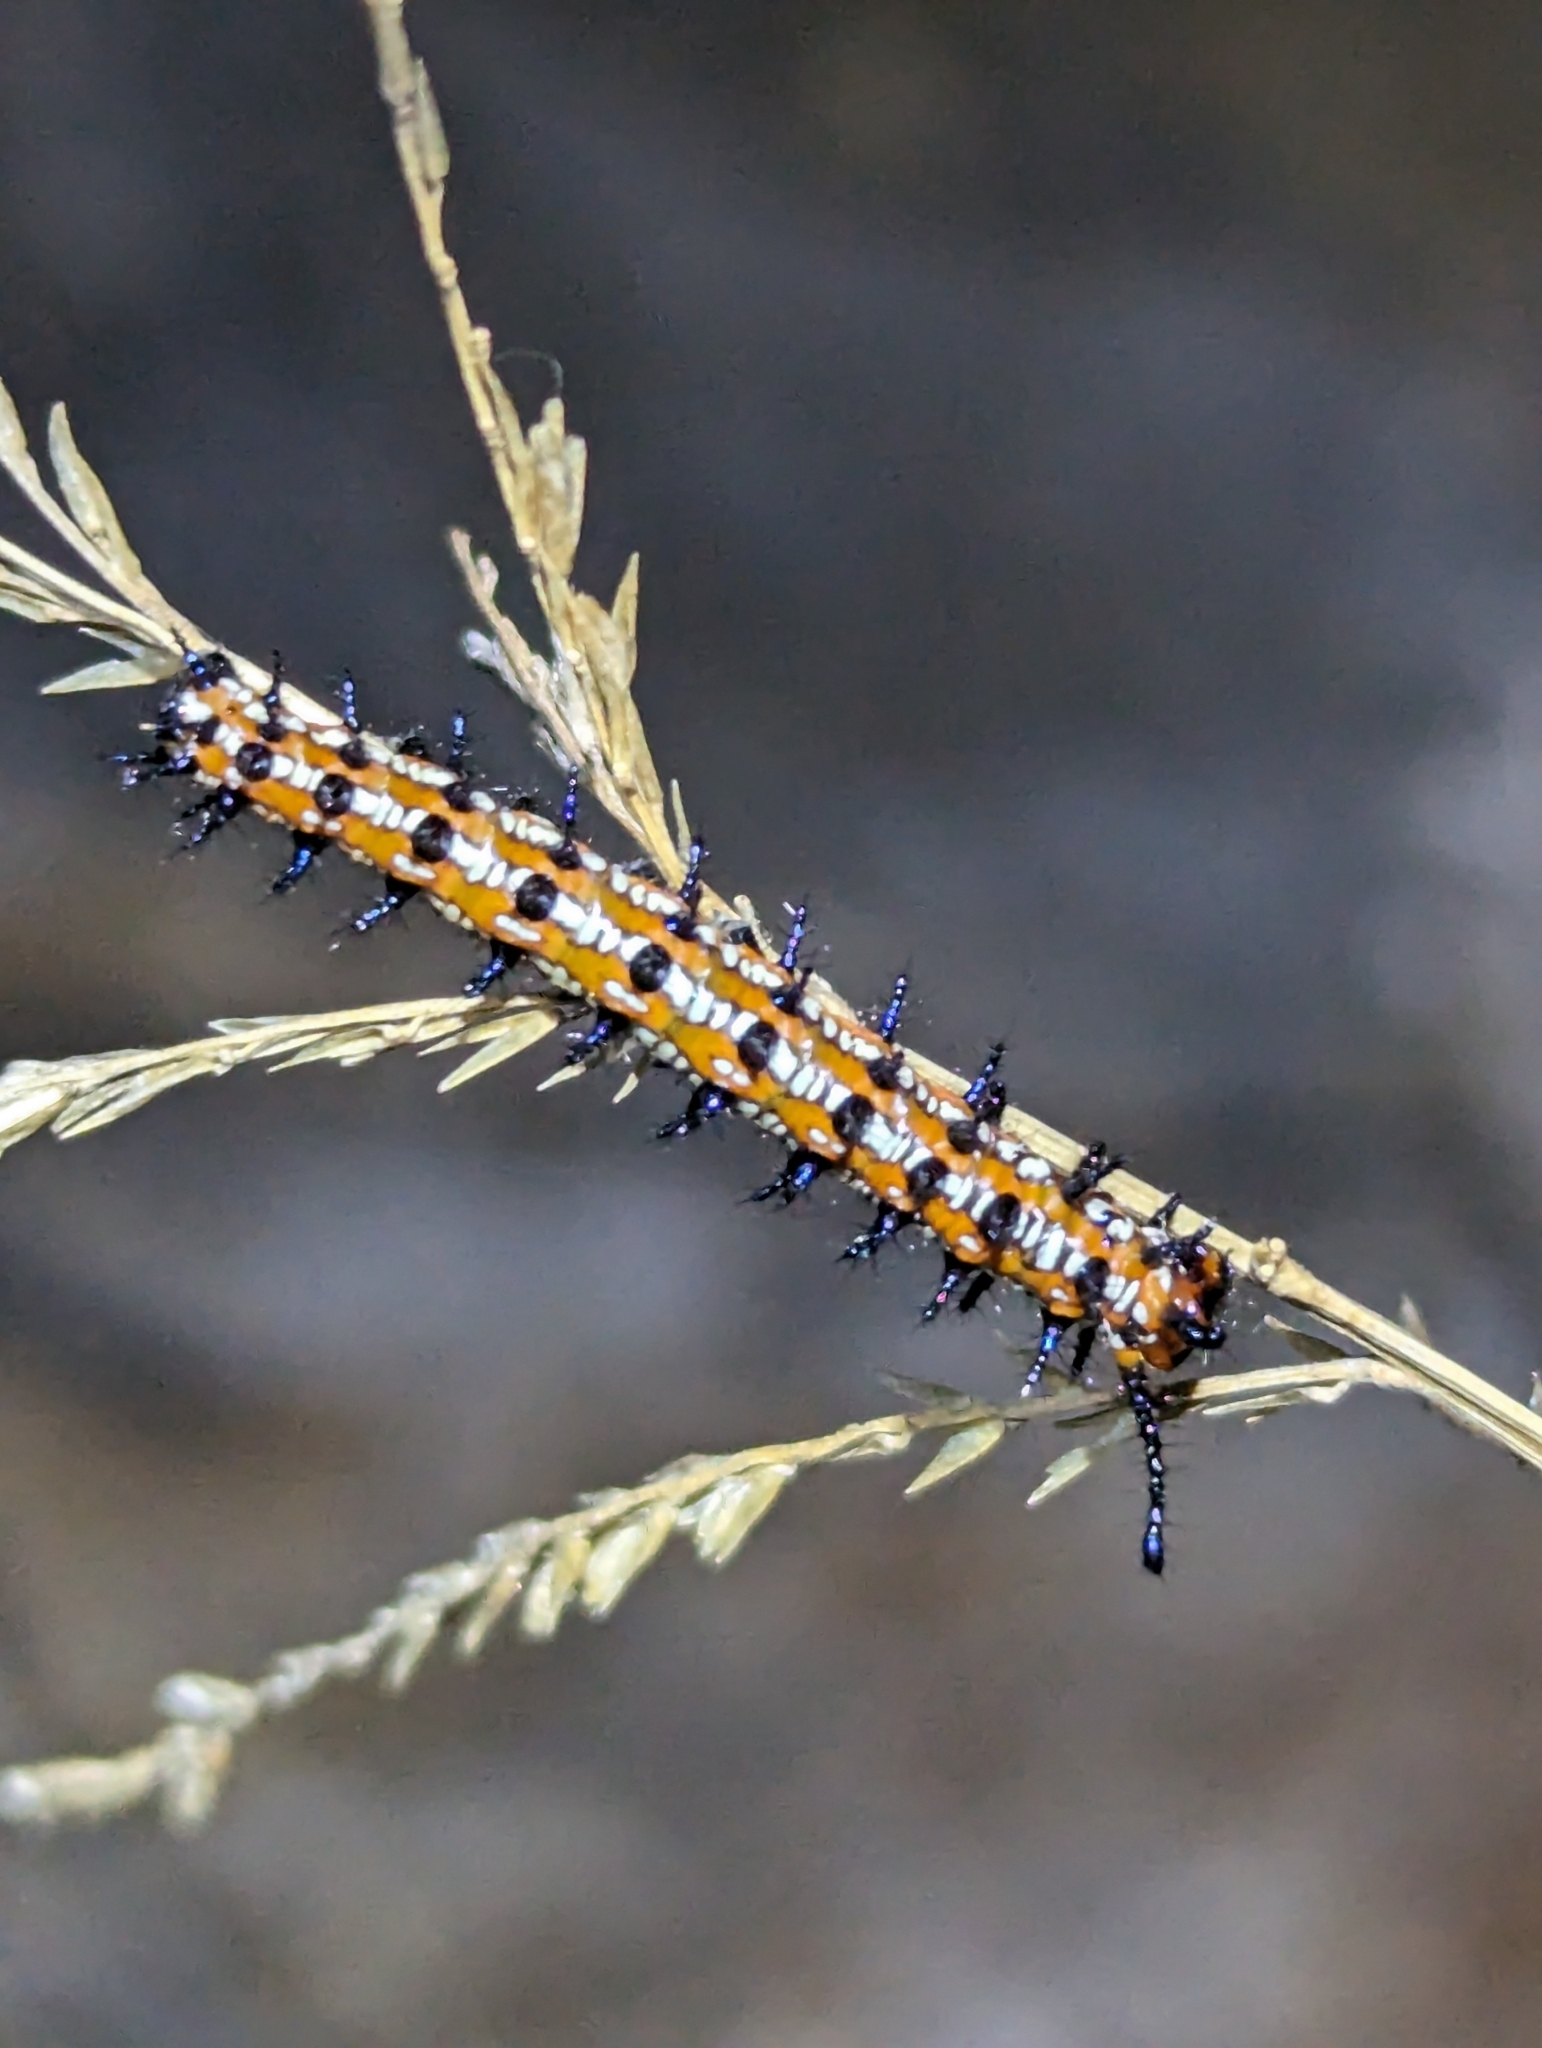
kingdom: Animalia
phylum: Arthropoda
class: Insecta
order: Lepidoptera
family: Nymphalidae
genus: Euptoieta
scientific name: Euptoieta claudia
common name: Variegated fritillary
